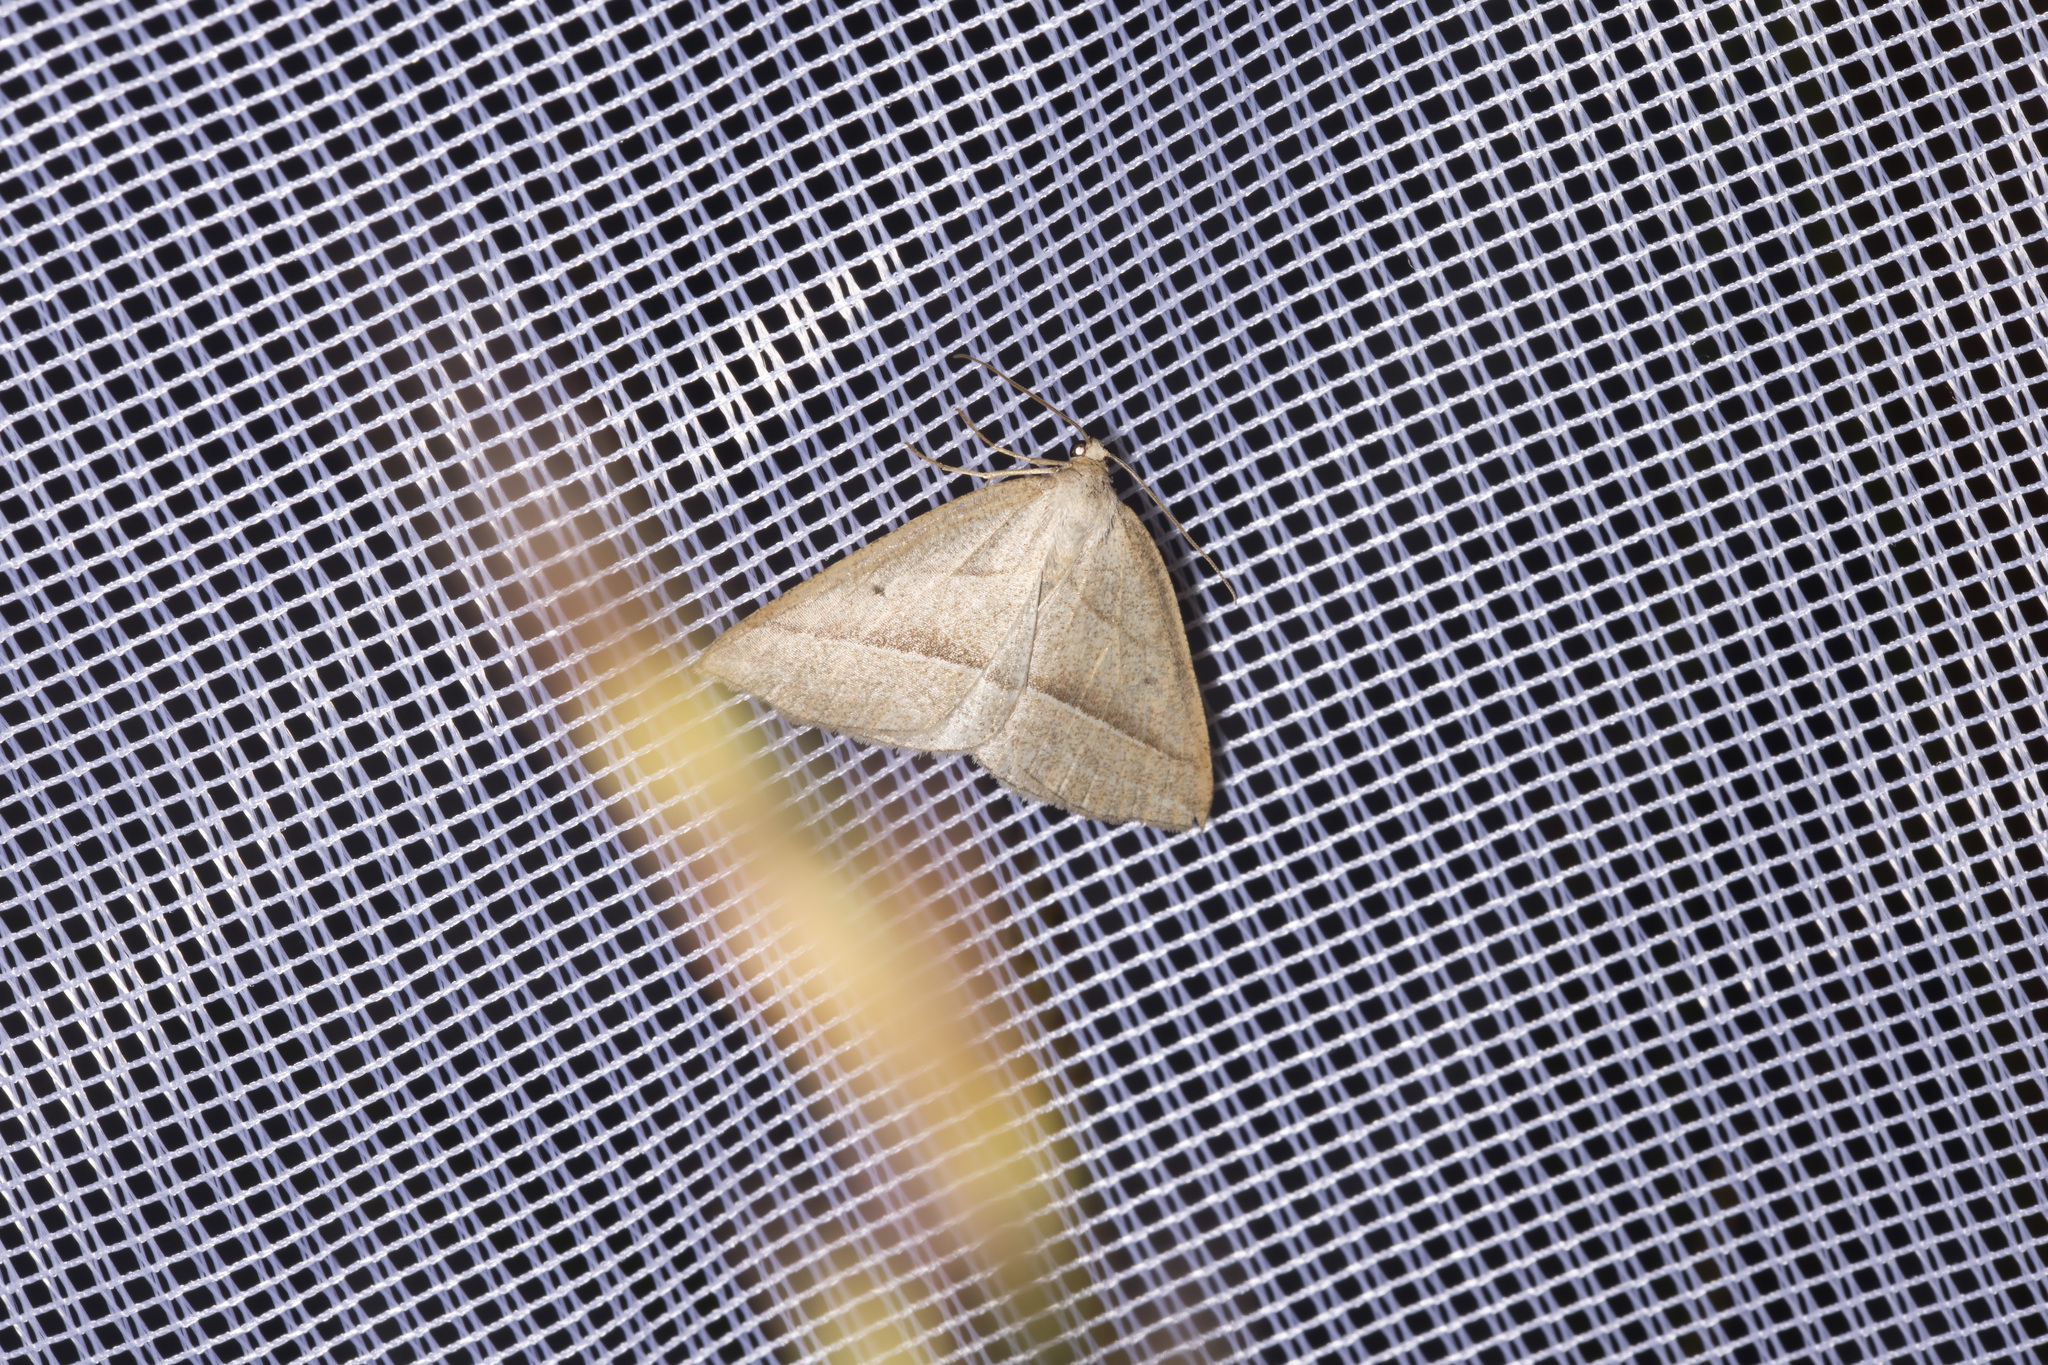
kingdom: Animalia
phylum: Arthropoda
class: Insecta
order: Lepidoptera
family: Pterophoridae
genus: Pterophorus
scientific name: Pterophorus Petrophora chlorosata
